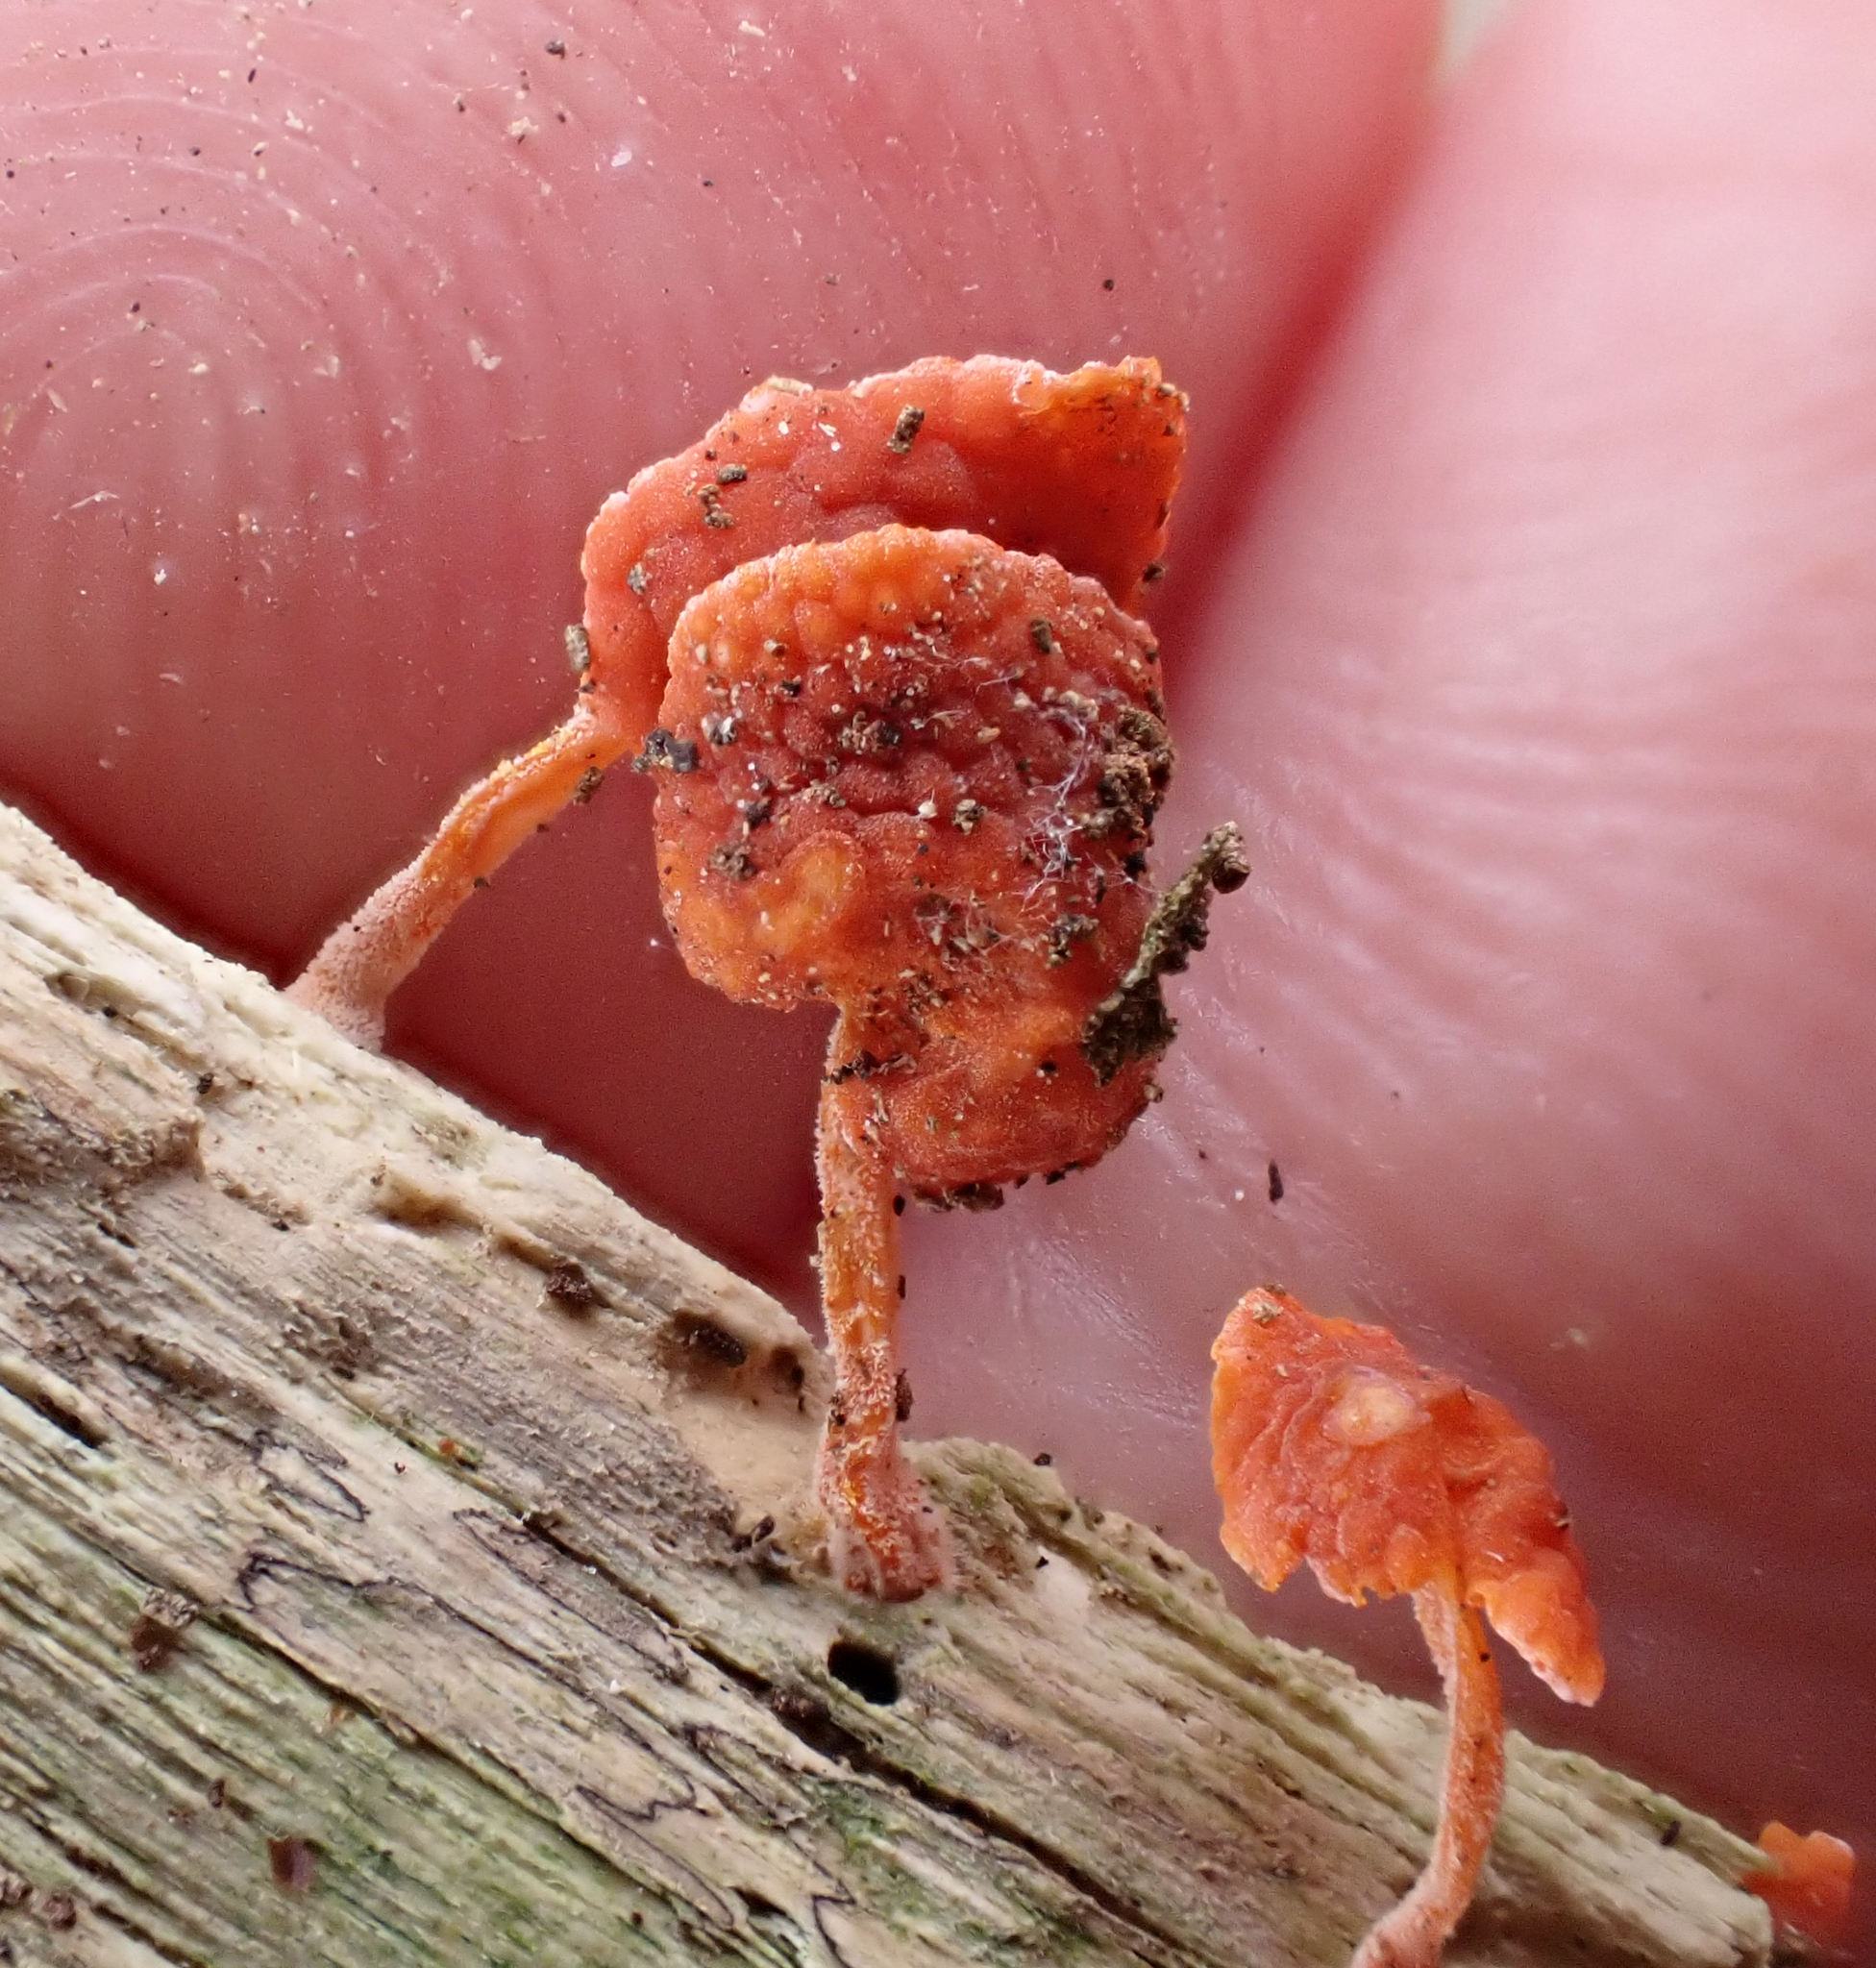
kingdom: Fungi
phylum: Basidiomycota
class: Agaricomycetes
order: Agaricales
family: Mycenaceae
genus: Favolaschia
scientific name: Favolaschia claudopus
